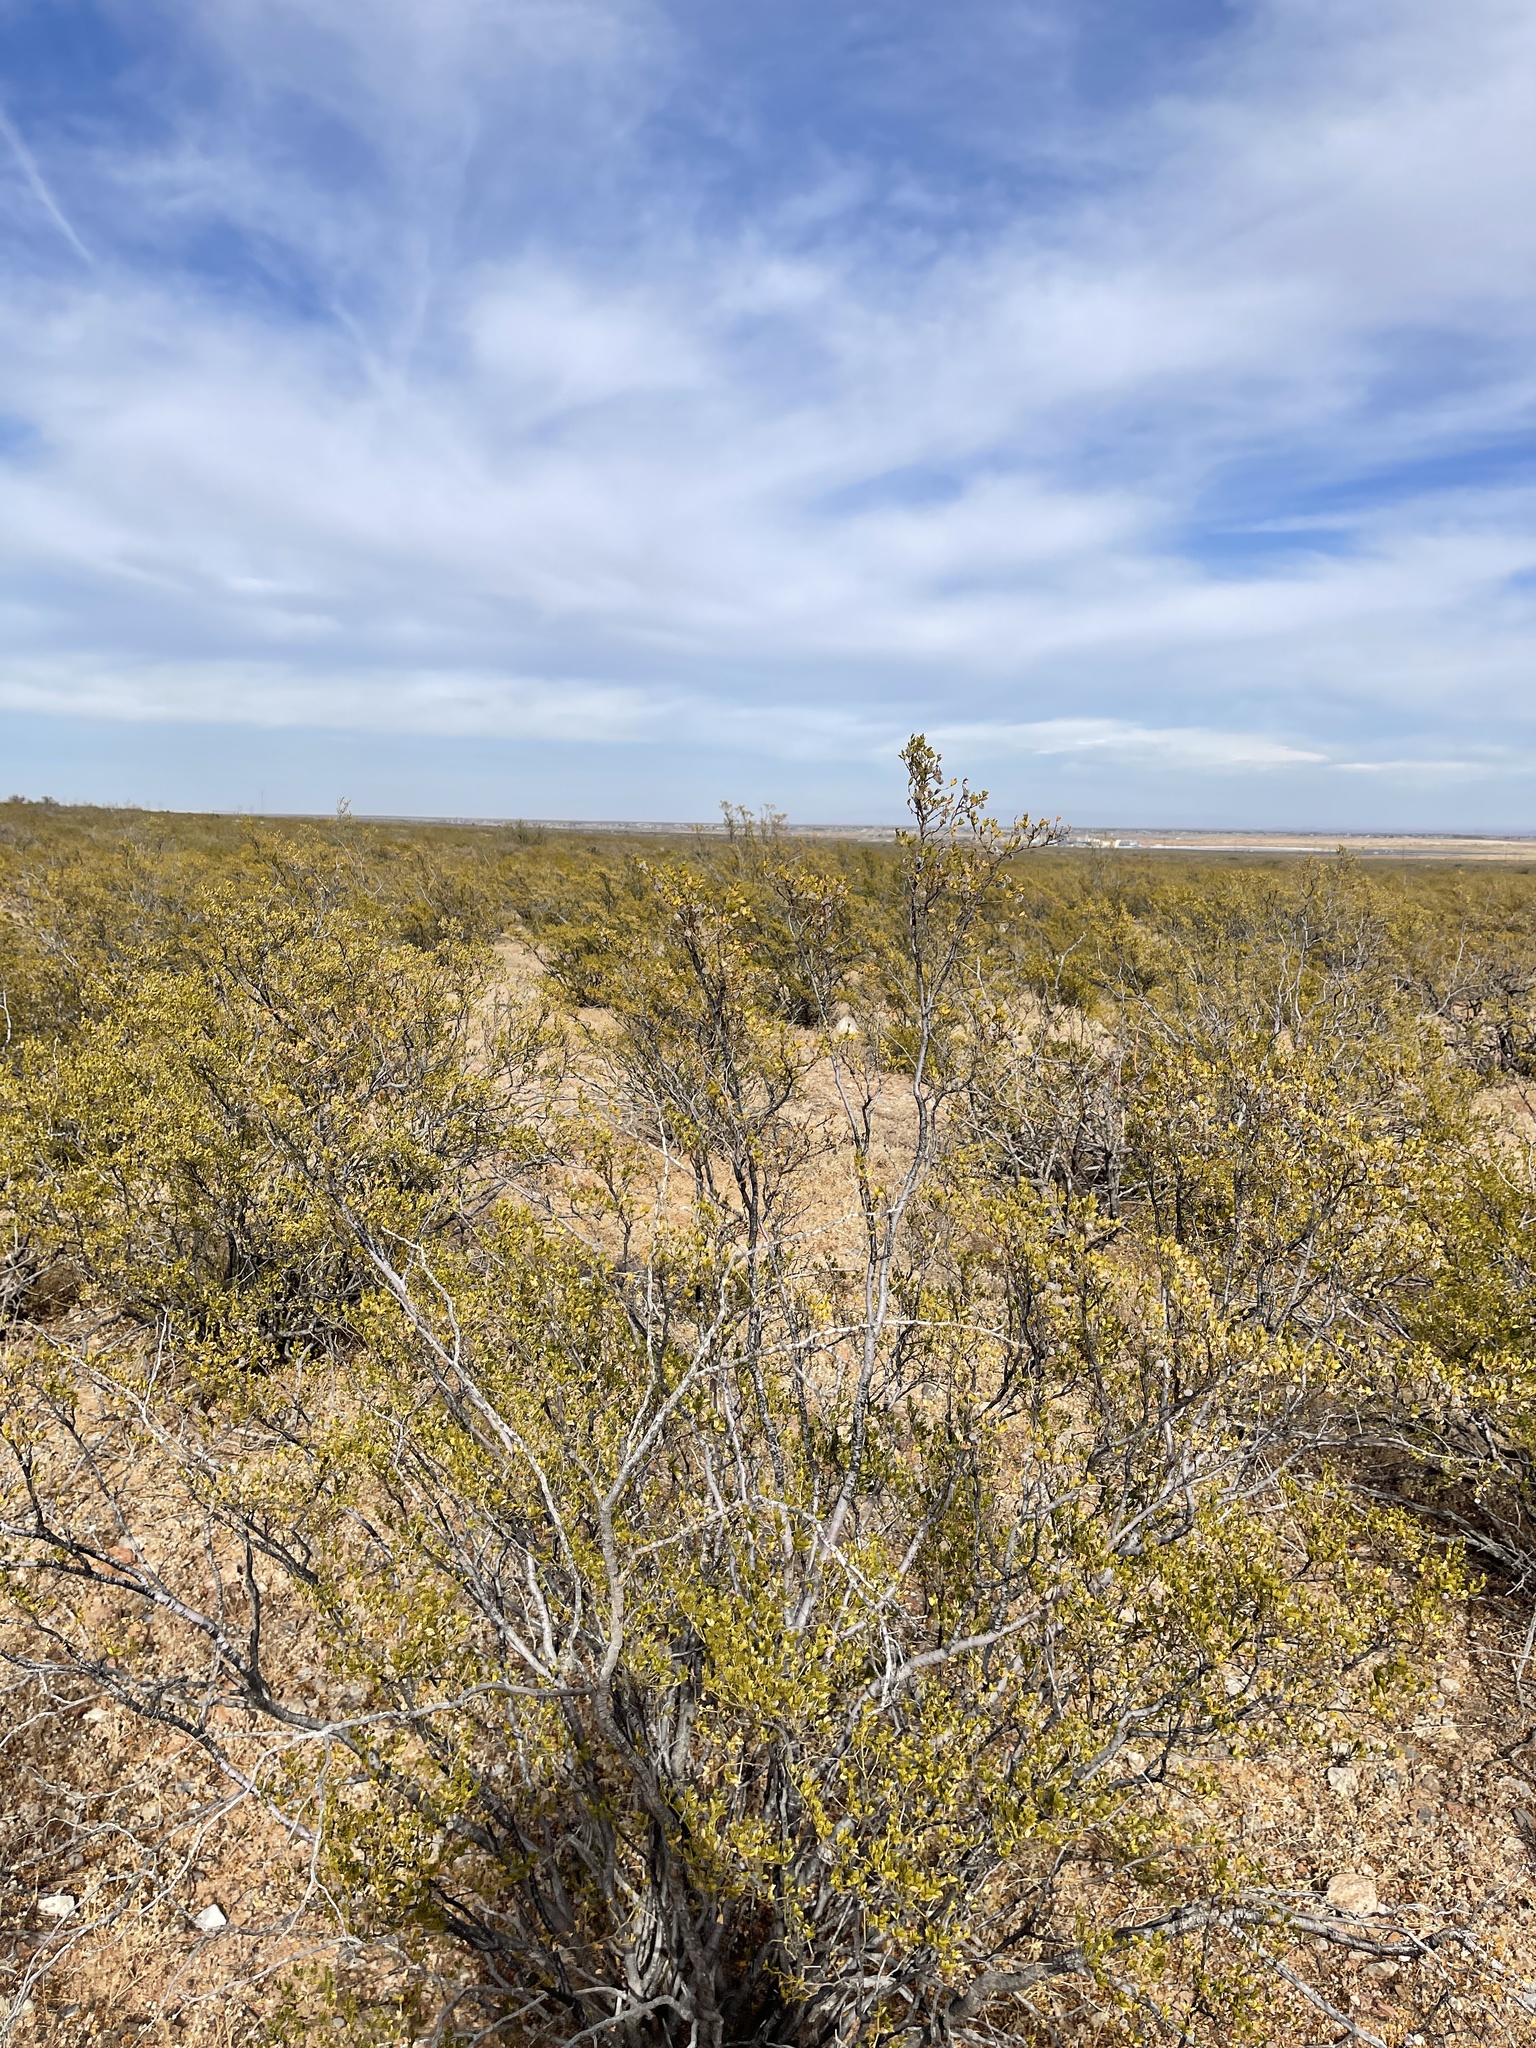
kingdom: Plantae
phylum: Tracheophyta
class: Magnoliopsida
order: Zygophyllales
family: Zygophyllaceae
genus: Larrea
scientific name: Larrea tridentata
